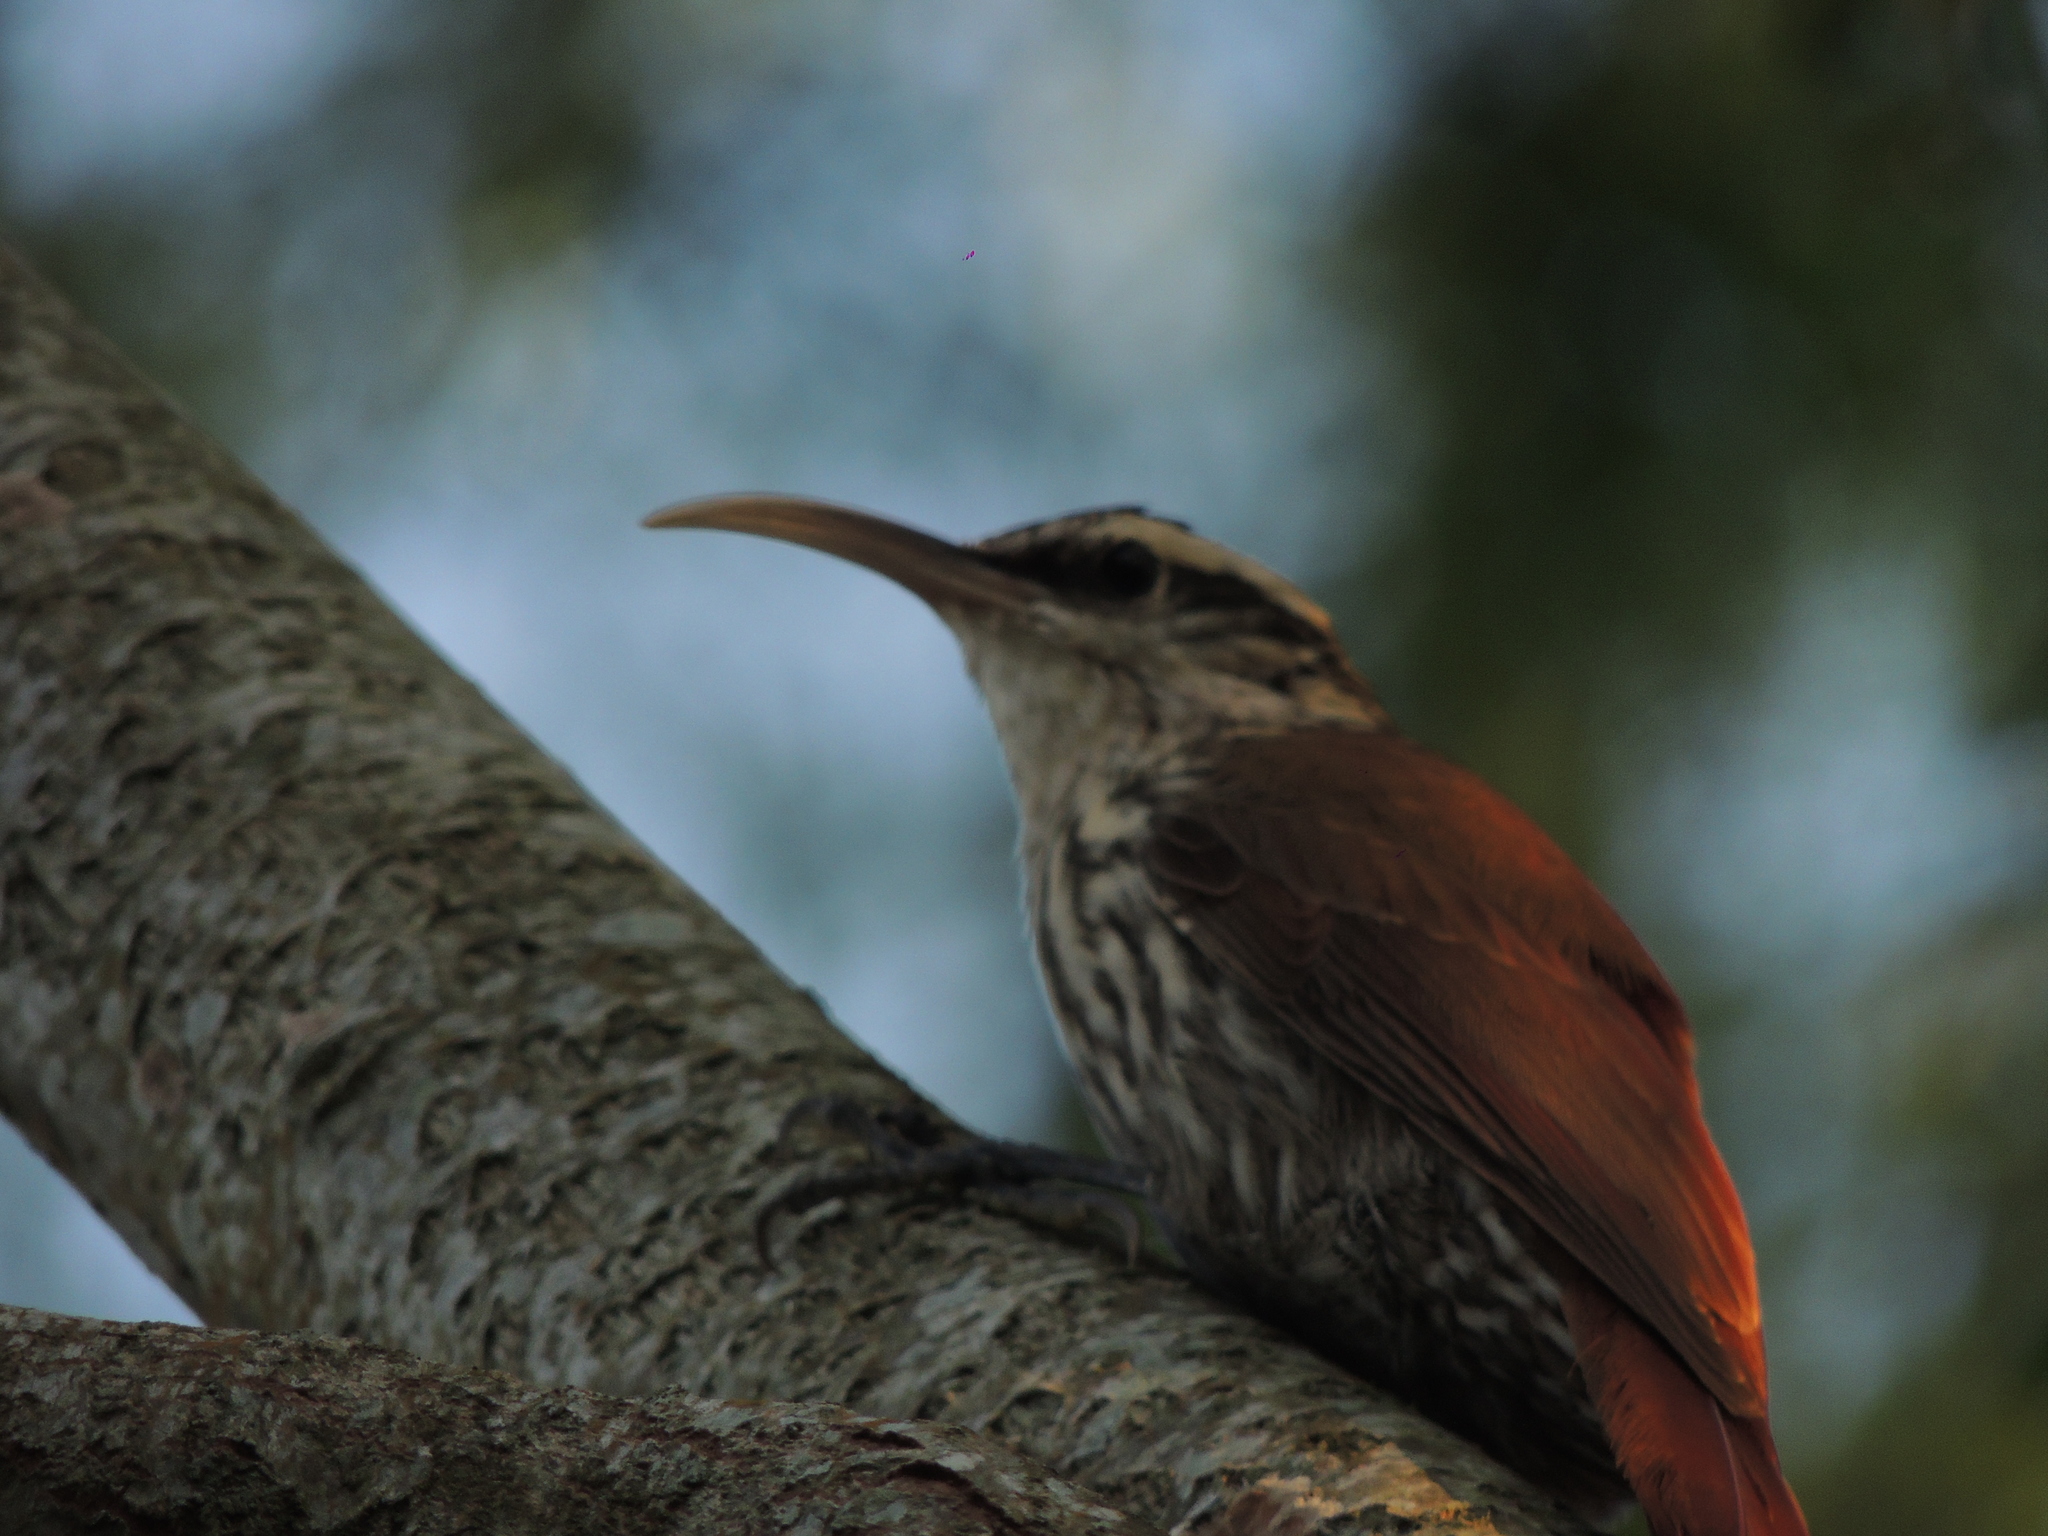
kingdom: Animalia
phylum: Chordata
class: Aves
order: Passeriformes
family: Furnariidae
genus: Lepidocolaptes
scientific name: Lepidocolaptes angustirostris
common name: Narrow-billed woodcreeper
